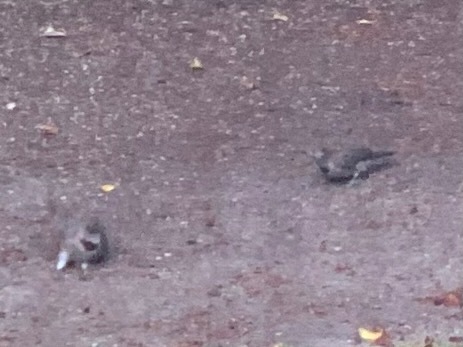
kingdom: Animalia
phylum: Chordata
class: Aves
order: Piciformes
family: Picidae
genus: Colaptes
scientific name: Colaptes auratus
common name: Northern flicker
